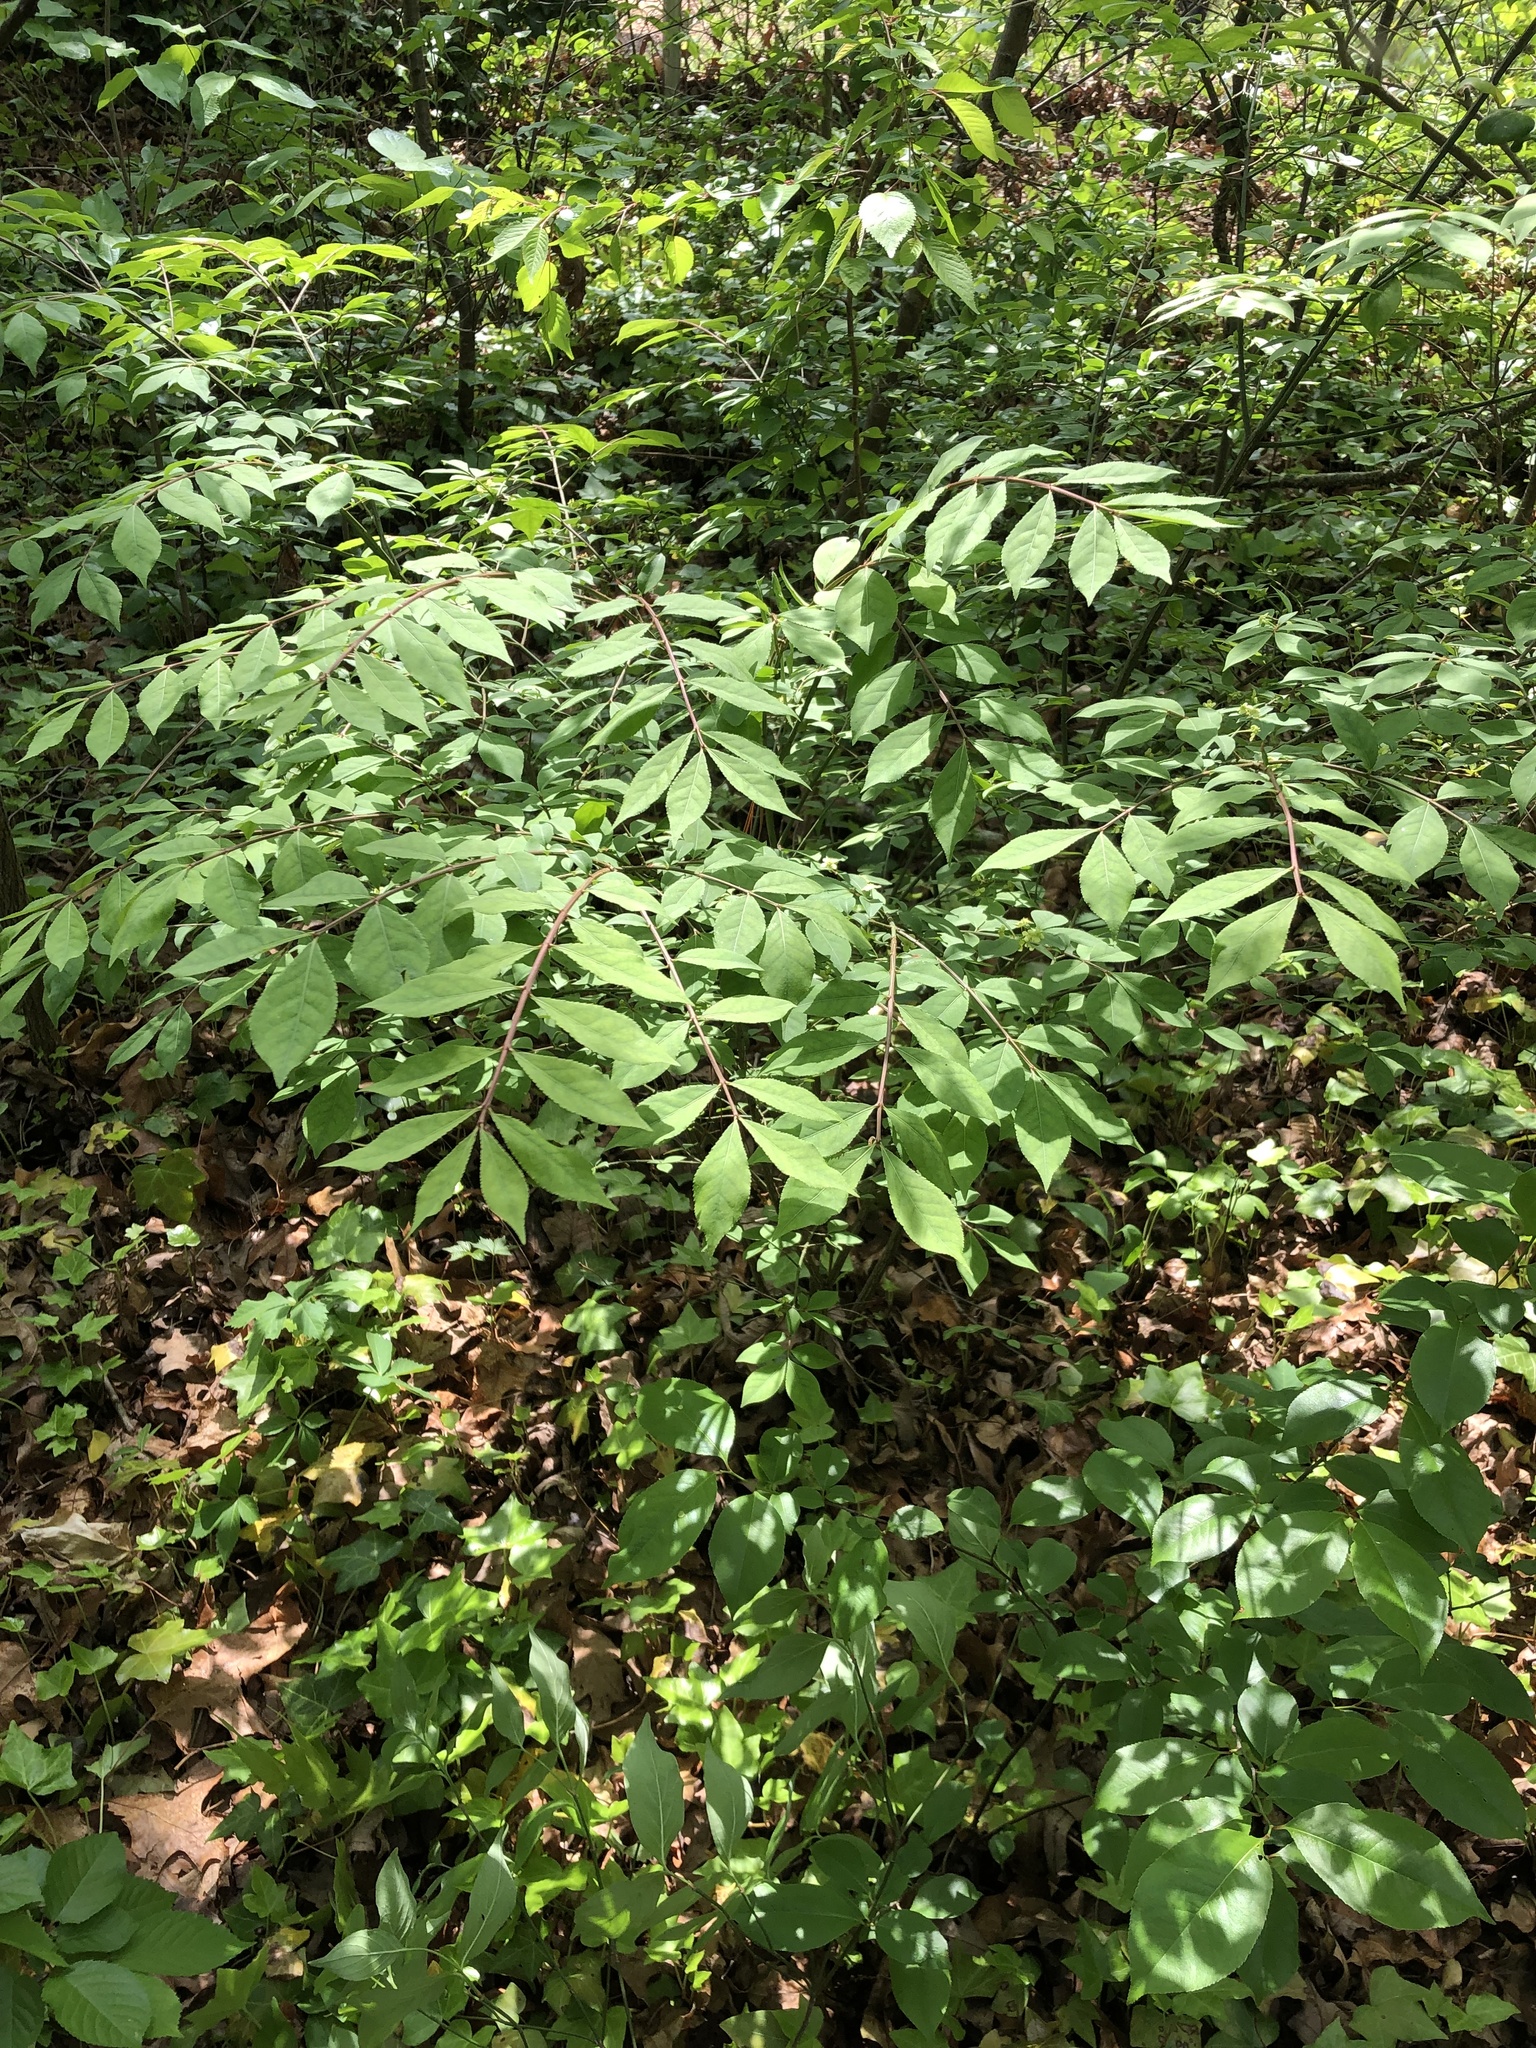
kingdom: Plantae
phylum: Tracheophyta
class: Magnoliopsida
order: Celastrales
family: Celastraceae
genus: Euonymus
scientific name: Euonymus alatus
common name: Winged euonymus
